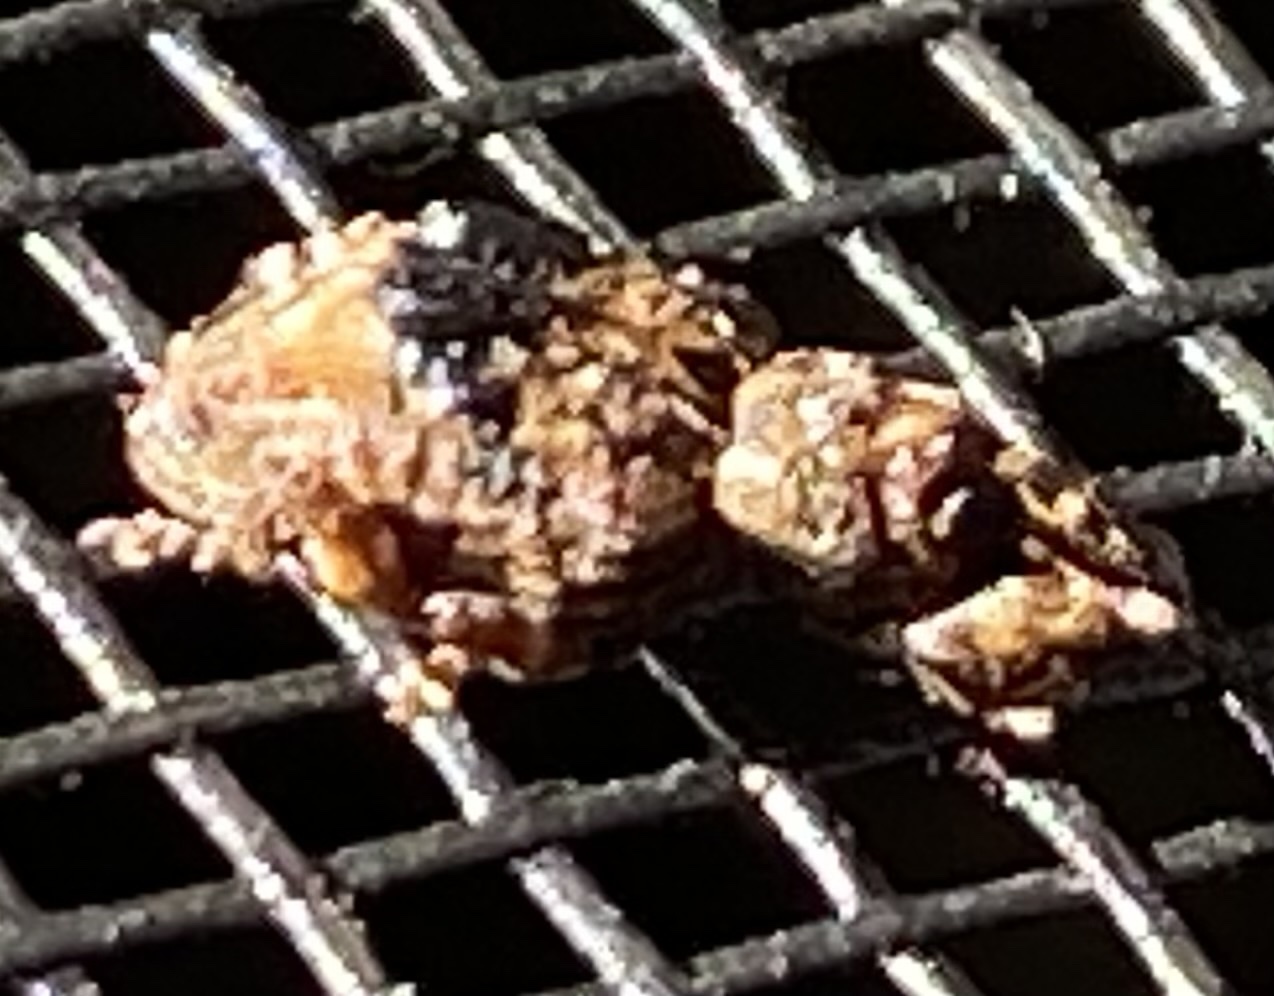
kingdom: Animalia
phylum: Arthropoda
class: Insecta
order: Coleoptera
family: Curculionidae
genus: Conotrachelus
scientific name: Conotrachelus nenuphar
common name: Plum curculio
